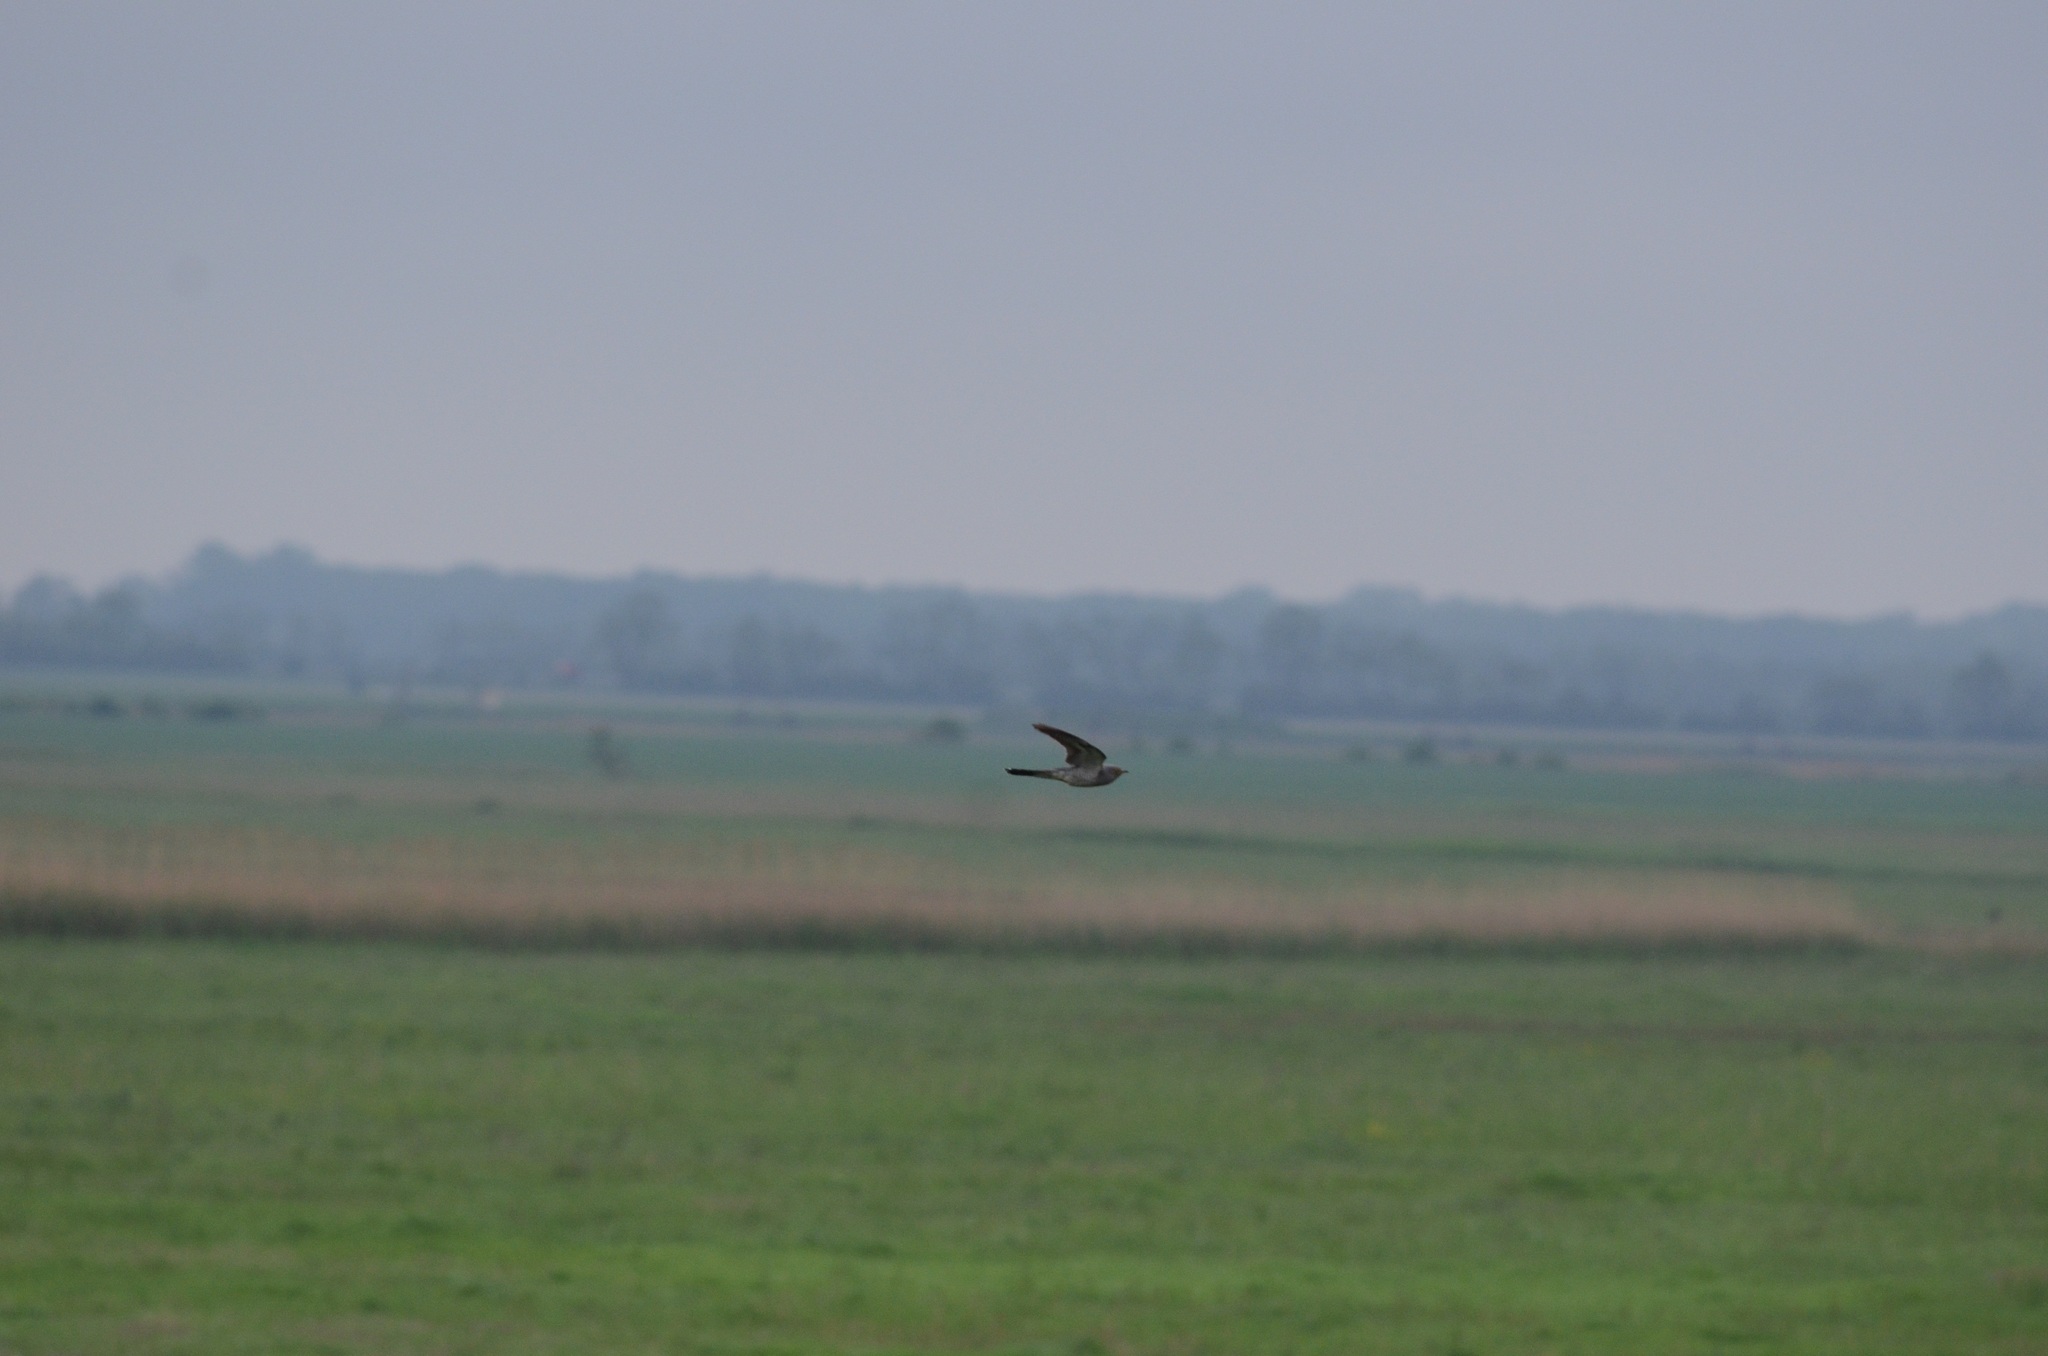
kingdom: Animalia
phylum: Chordata
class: Aves
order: Cuculiformes
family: Cuculidae
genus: Cuculus
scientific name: Cuculus canorus
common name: Common cuckoo
